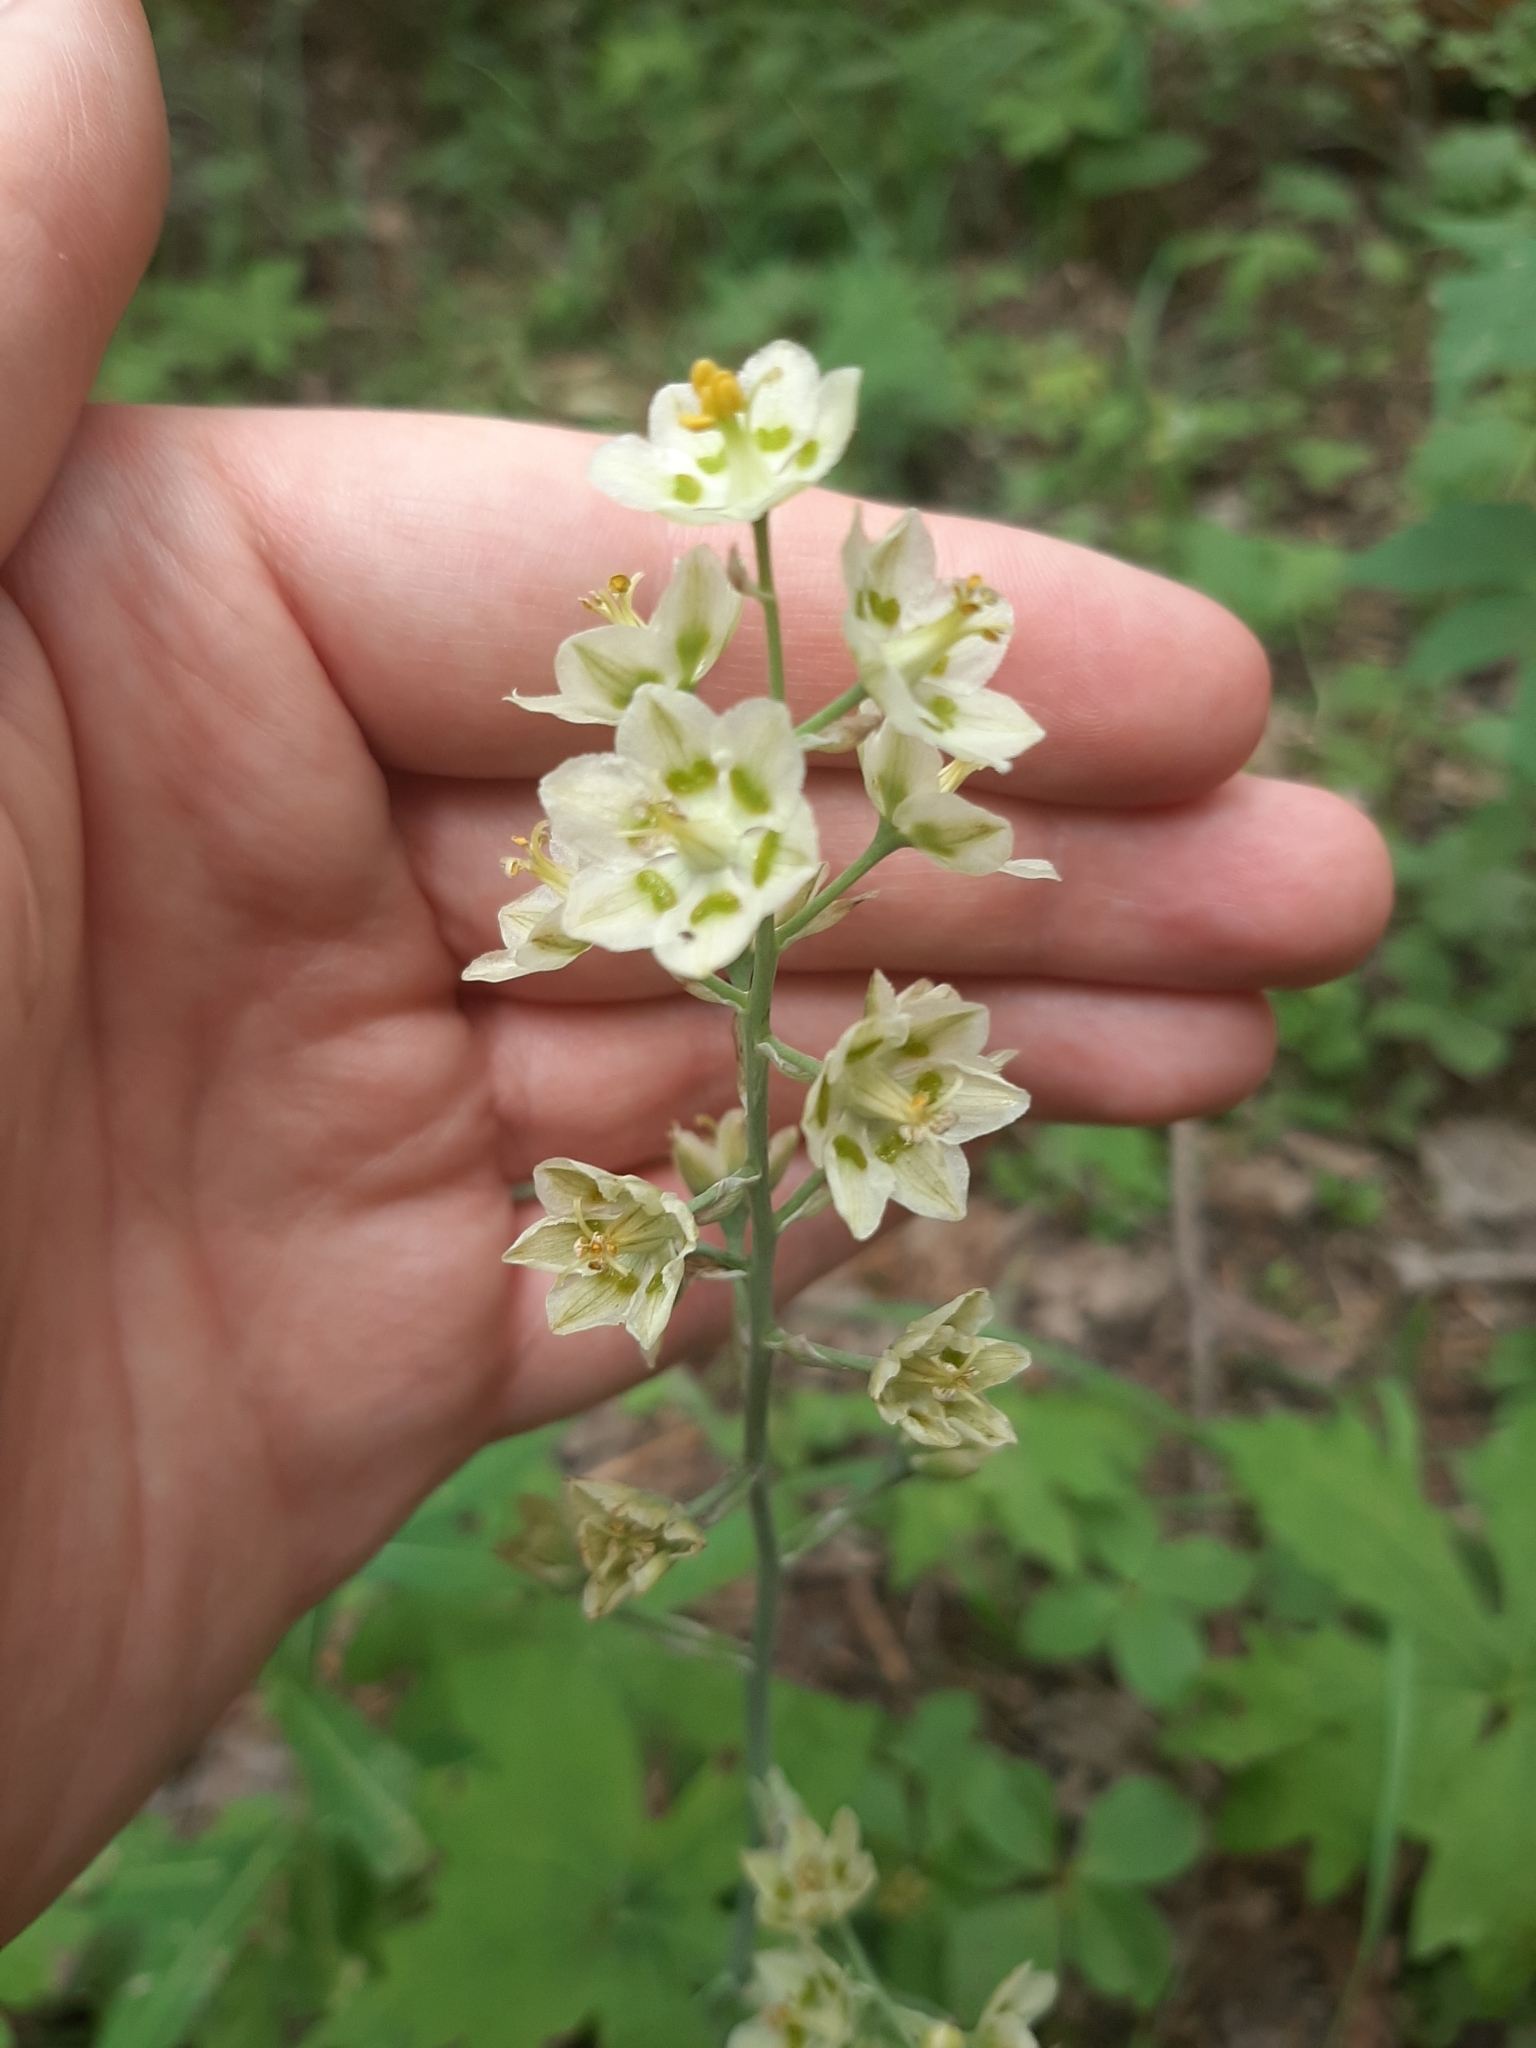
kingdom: Plantae
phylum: Tracheophyta
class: Liliopsida
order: Liliales
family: Melanthiaceae
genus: Anticlea
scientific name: Anticlea elegans
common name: Mountain death camas
